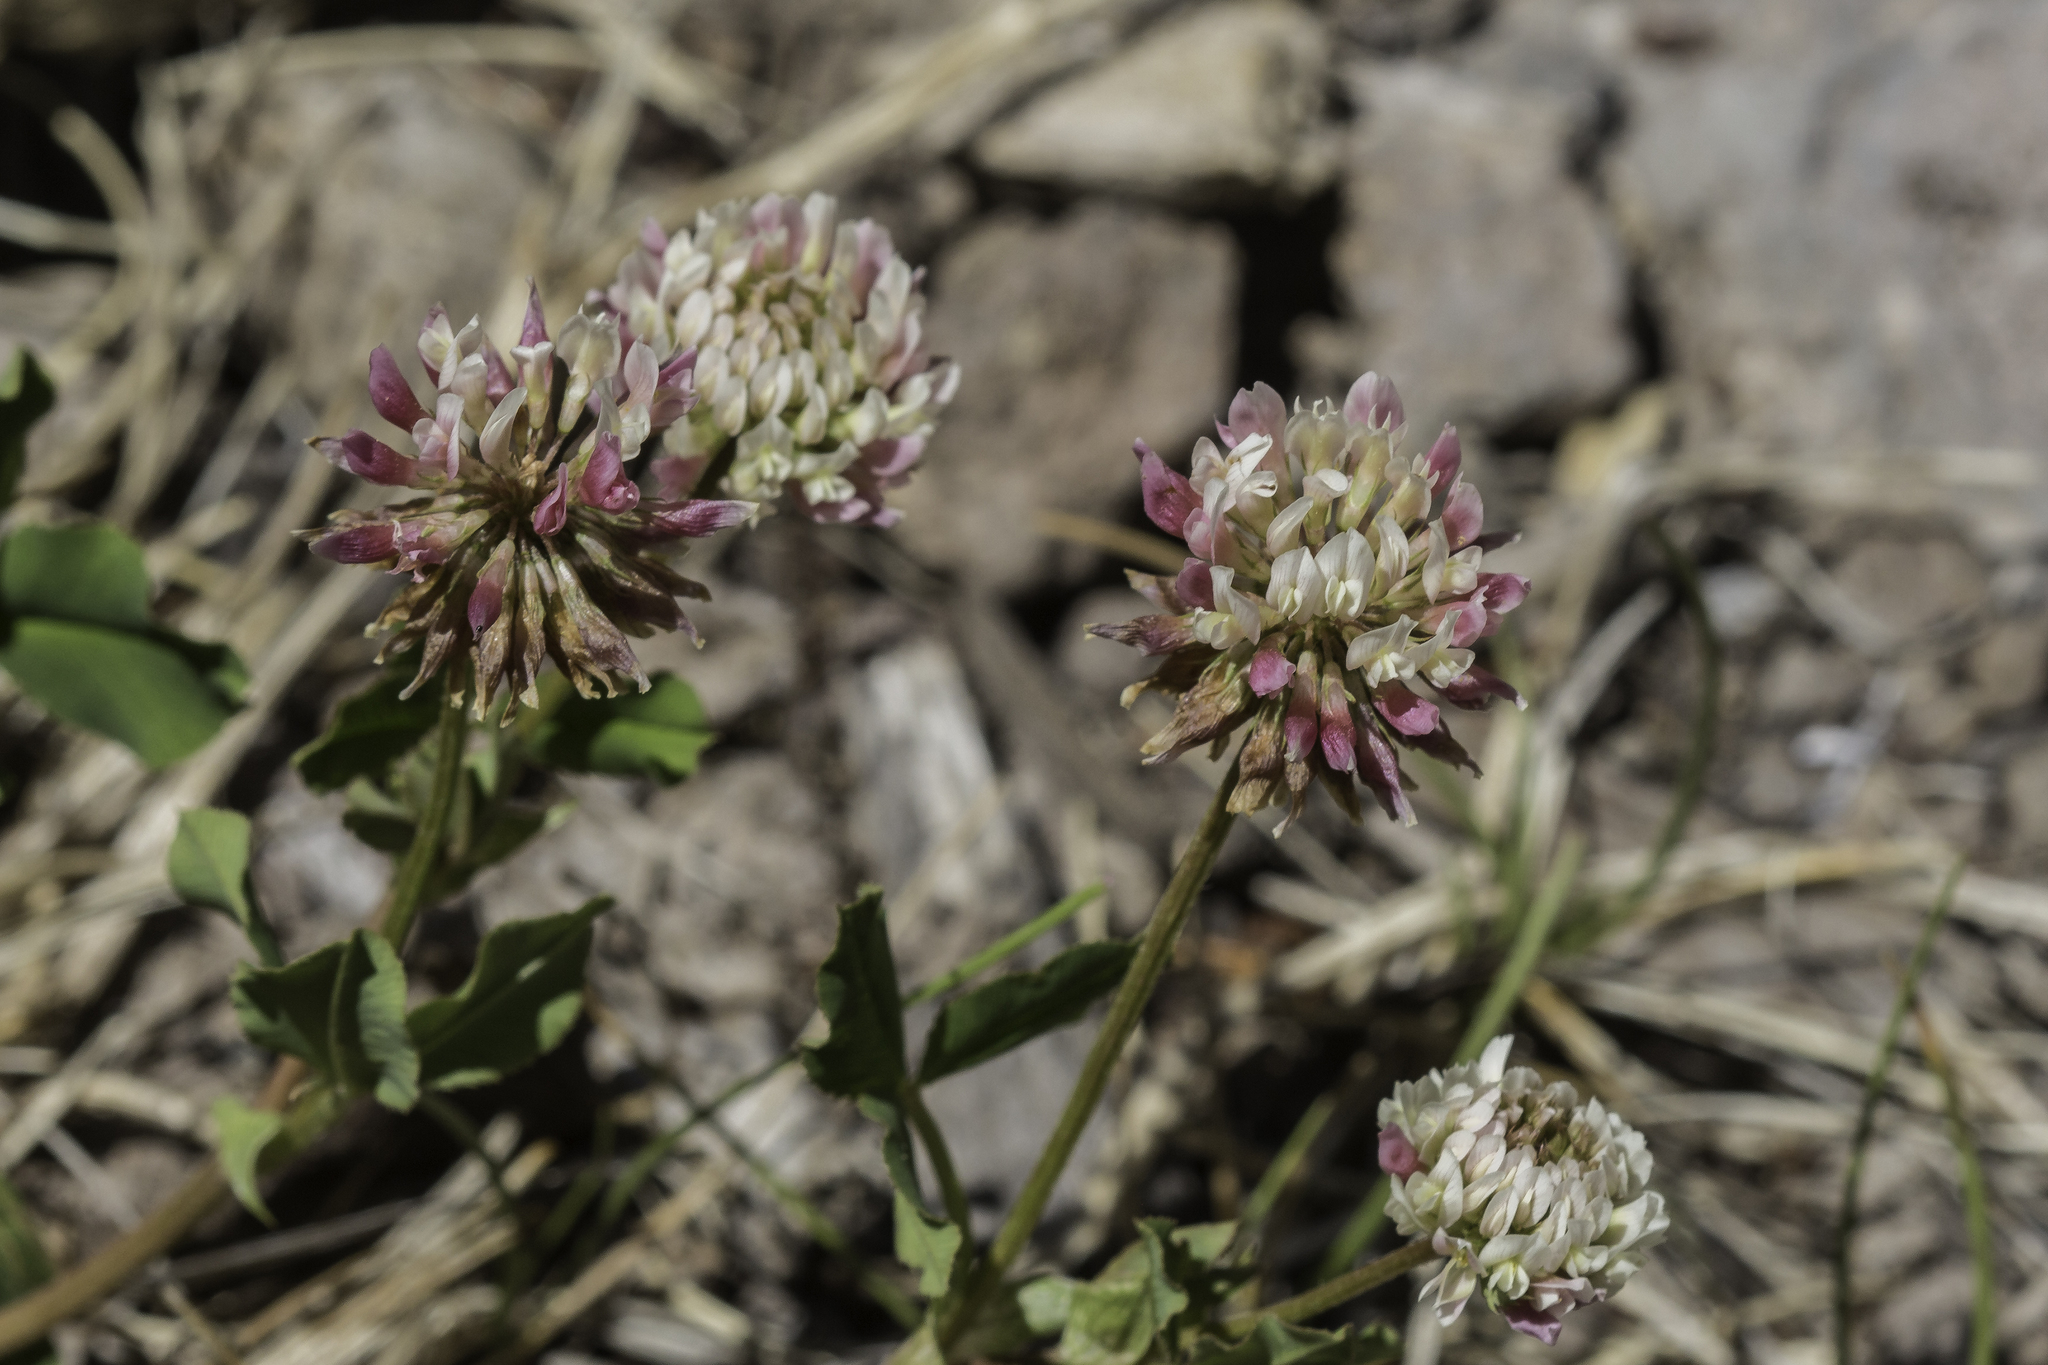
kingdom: Plantae
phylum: Tracheophyta
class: Magnoliopsida
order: Fabales
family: Fabaceae
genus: Trifolium
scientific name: Trifolium hybridum
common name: Alsike clover
